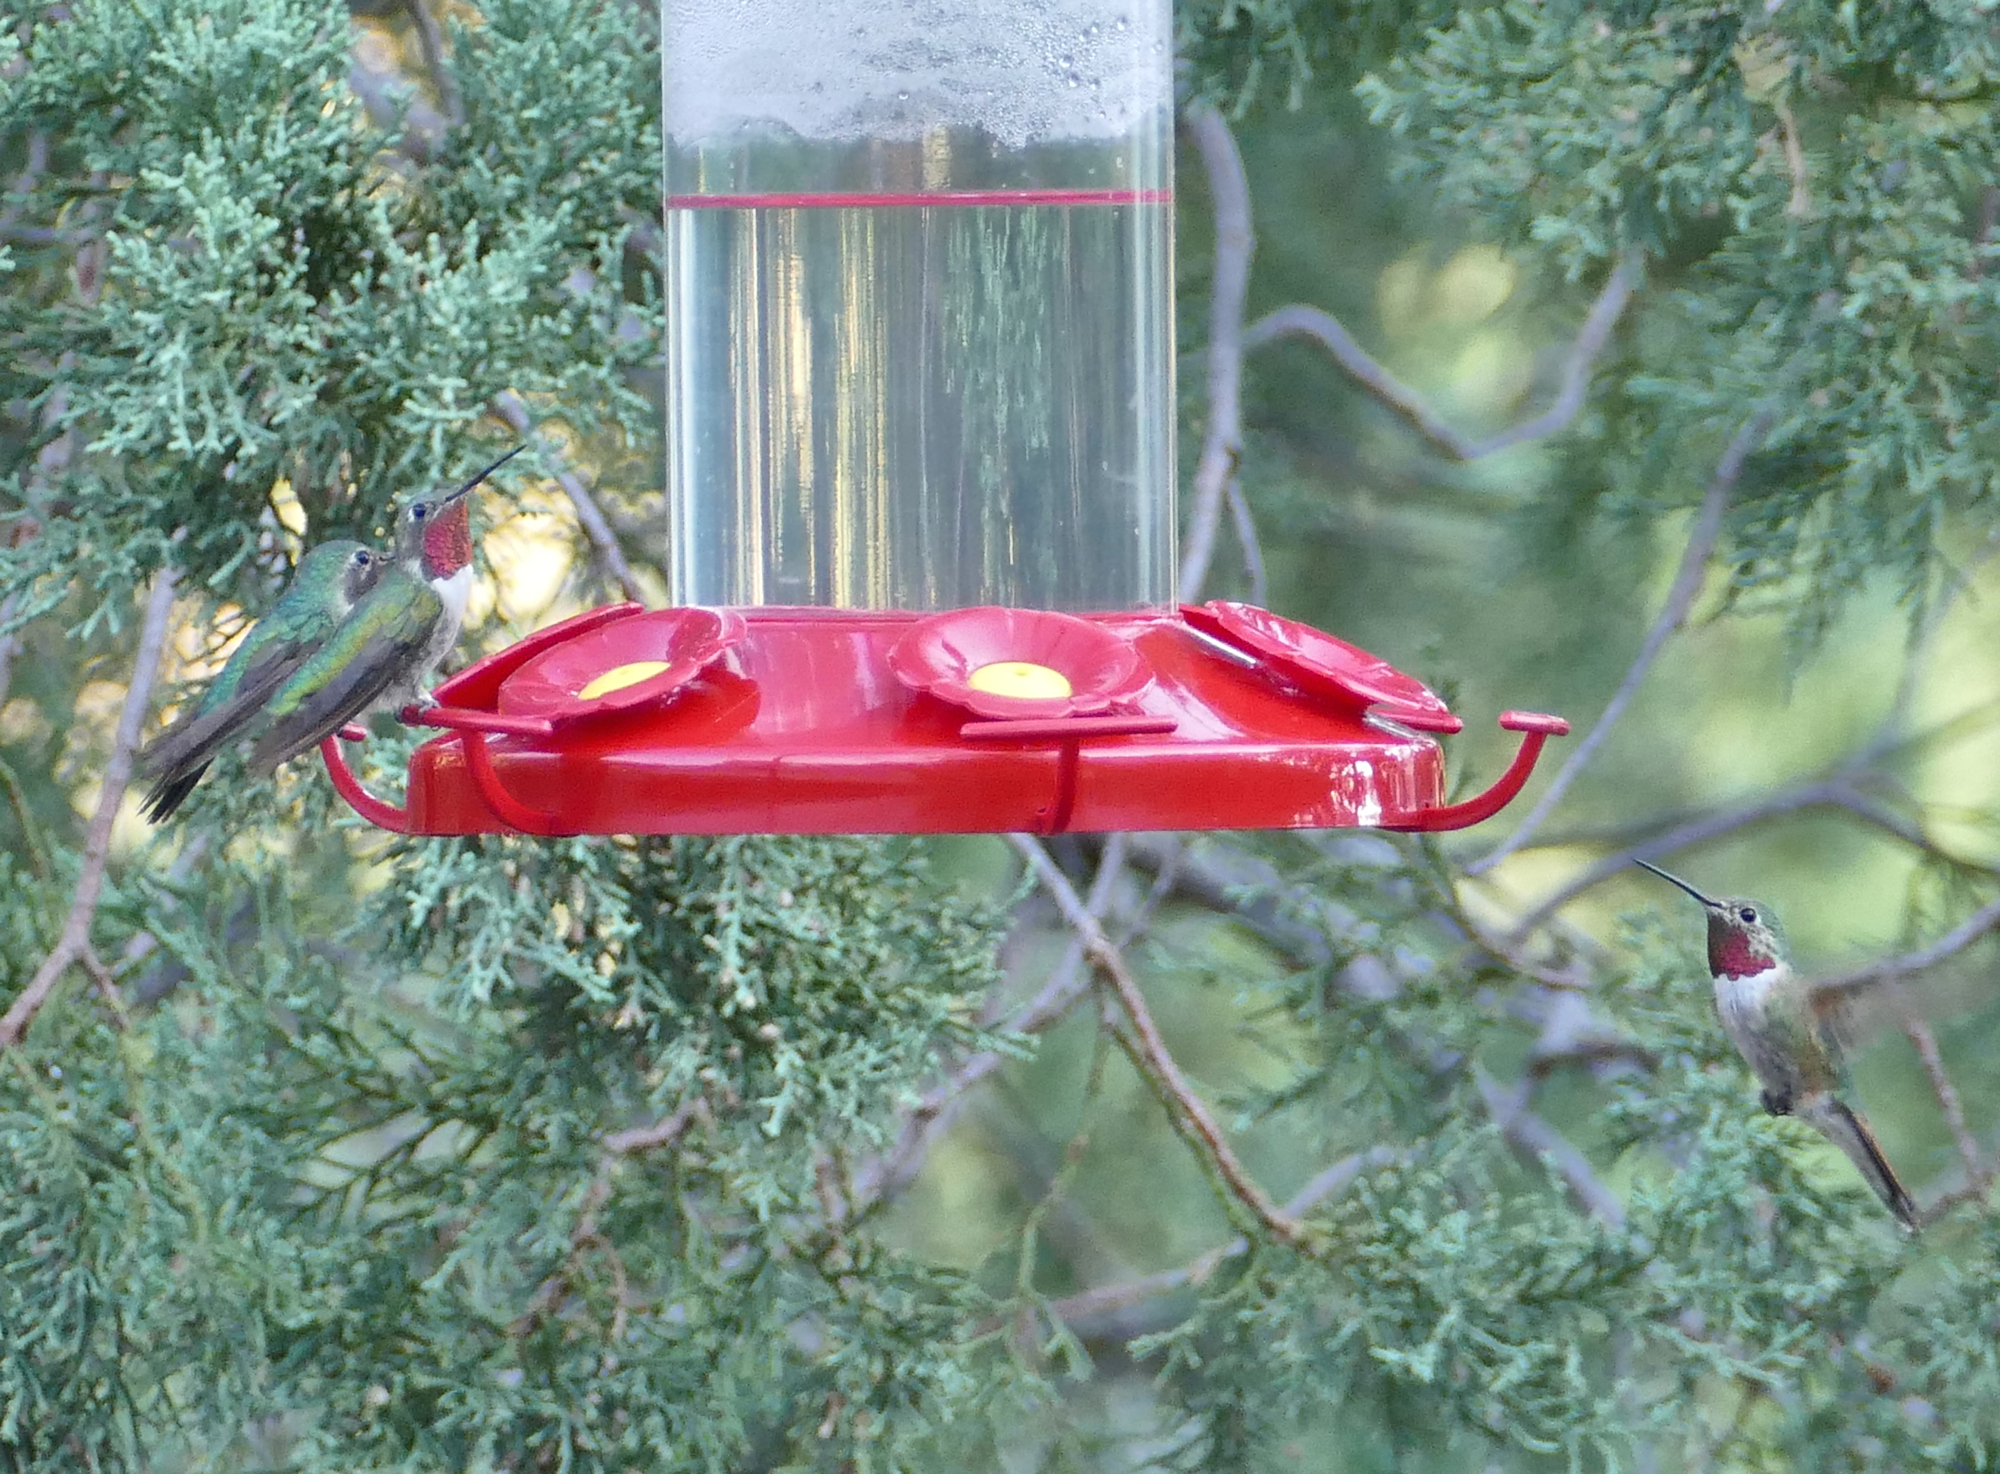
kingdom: Animalia
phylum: Chordata
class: Aves
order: Apodiformes
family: Trochilidae
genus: Selasphorus
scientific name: Selasphorus platycercus
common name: Broad-tailed hummingbird
